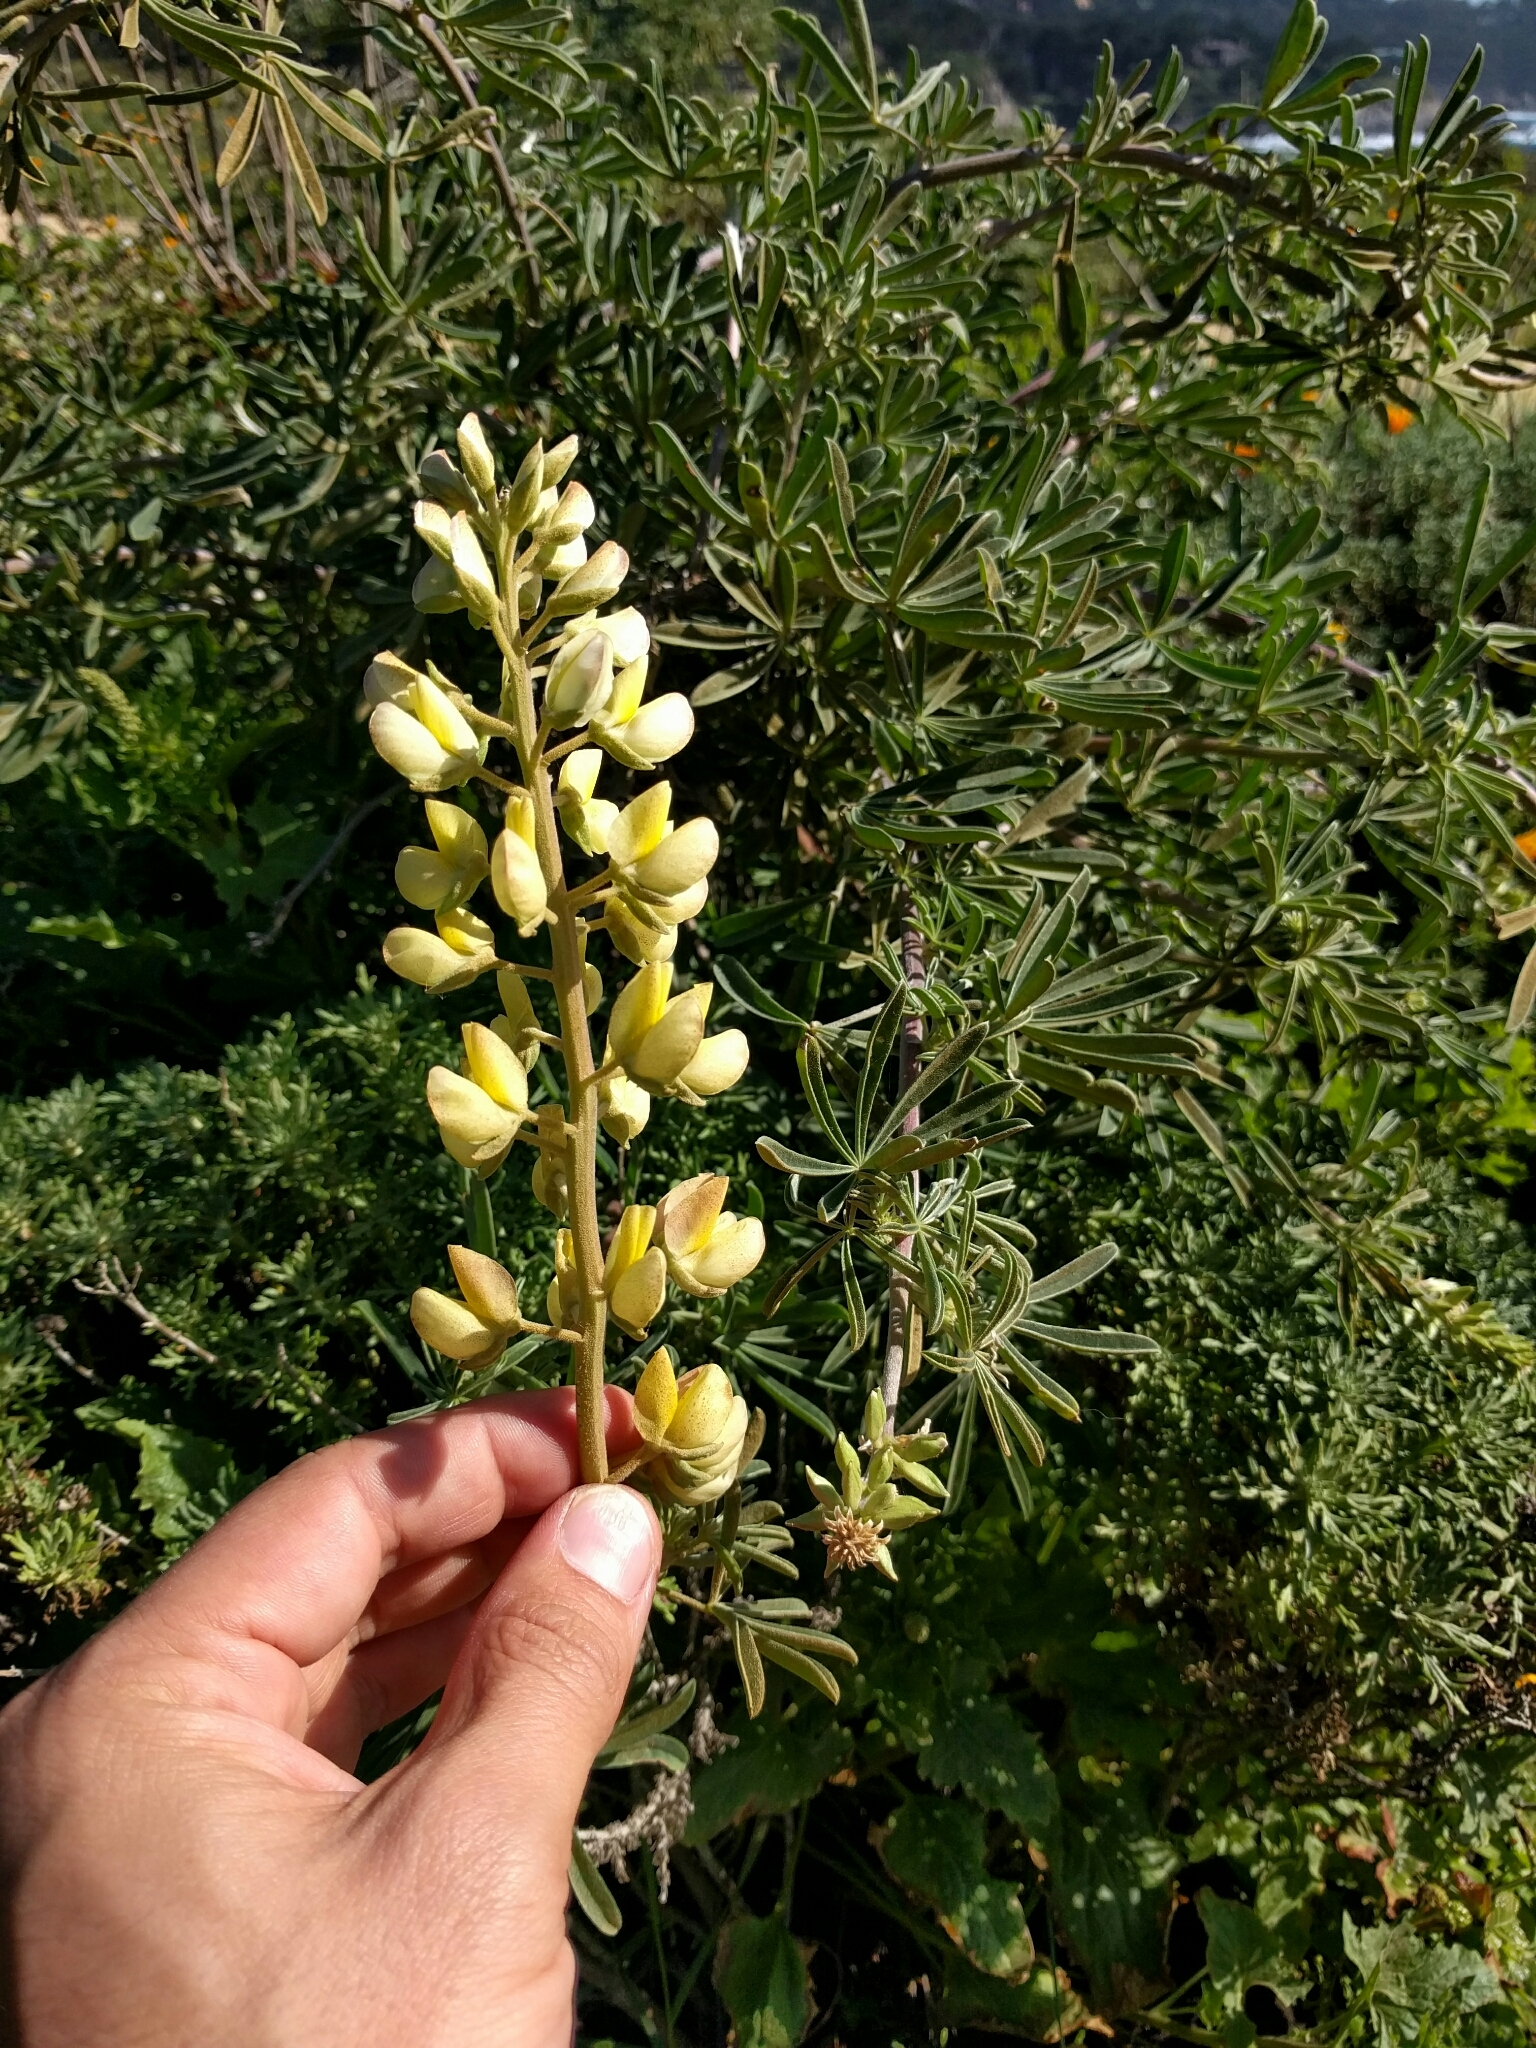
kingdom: Plantae
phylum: Tracheophyta
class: Magnoliopsida
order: Fabales
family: Fabaceae
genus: Lupinus
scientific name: Lupinus arboreus
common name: Yellow bush lupine
